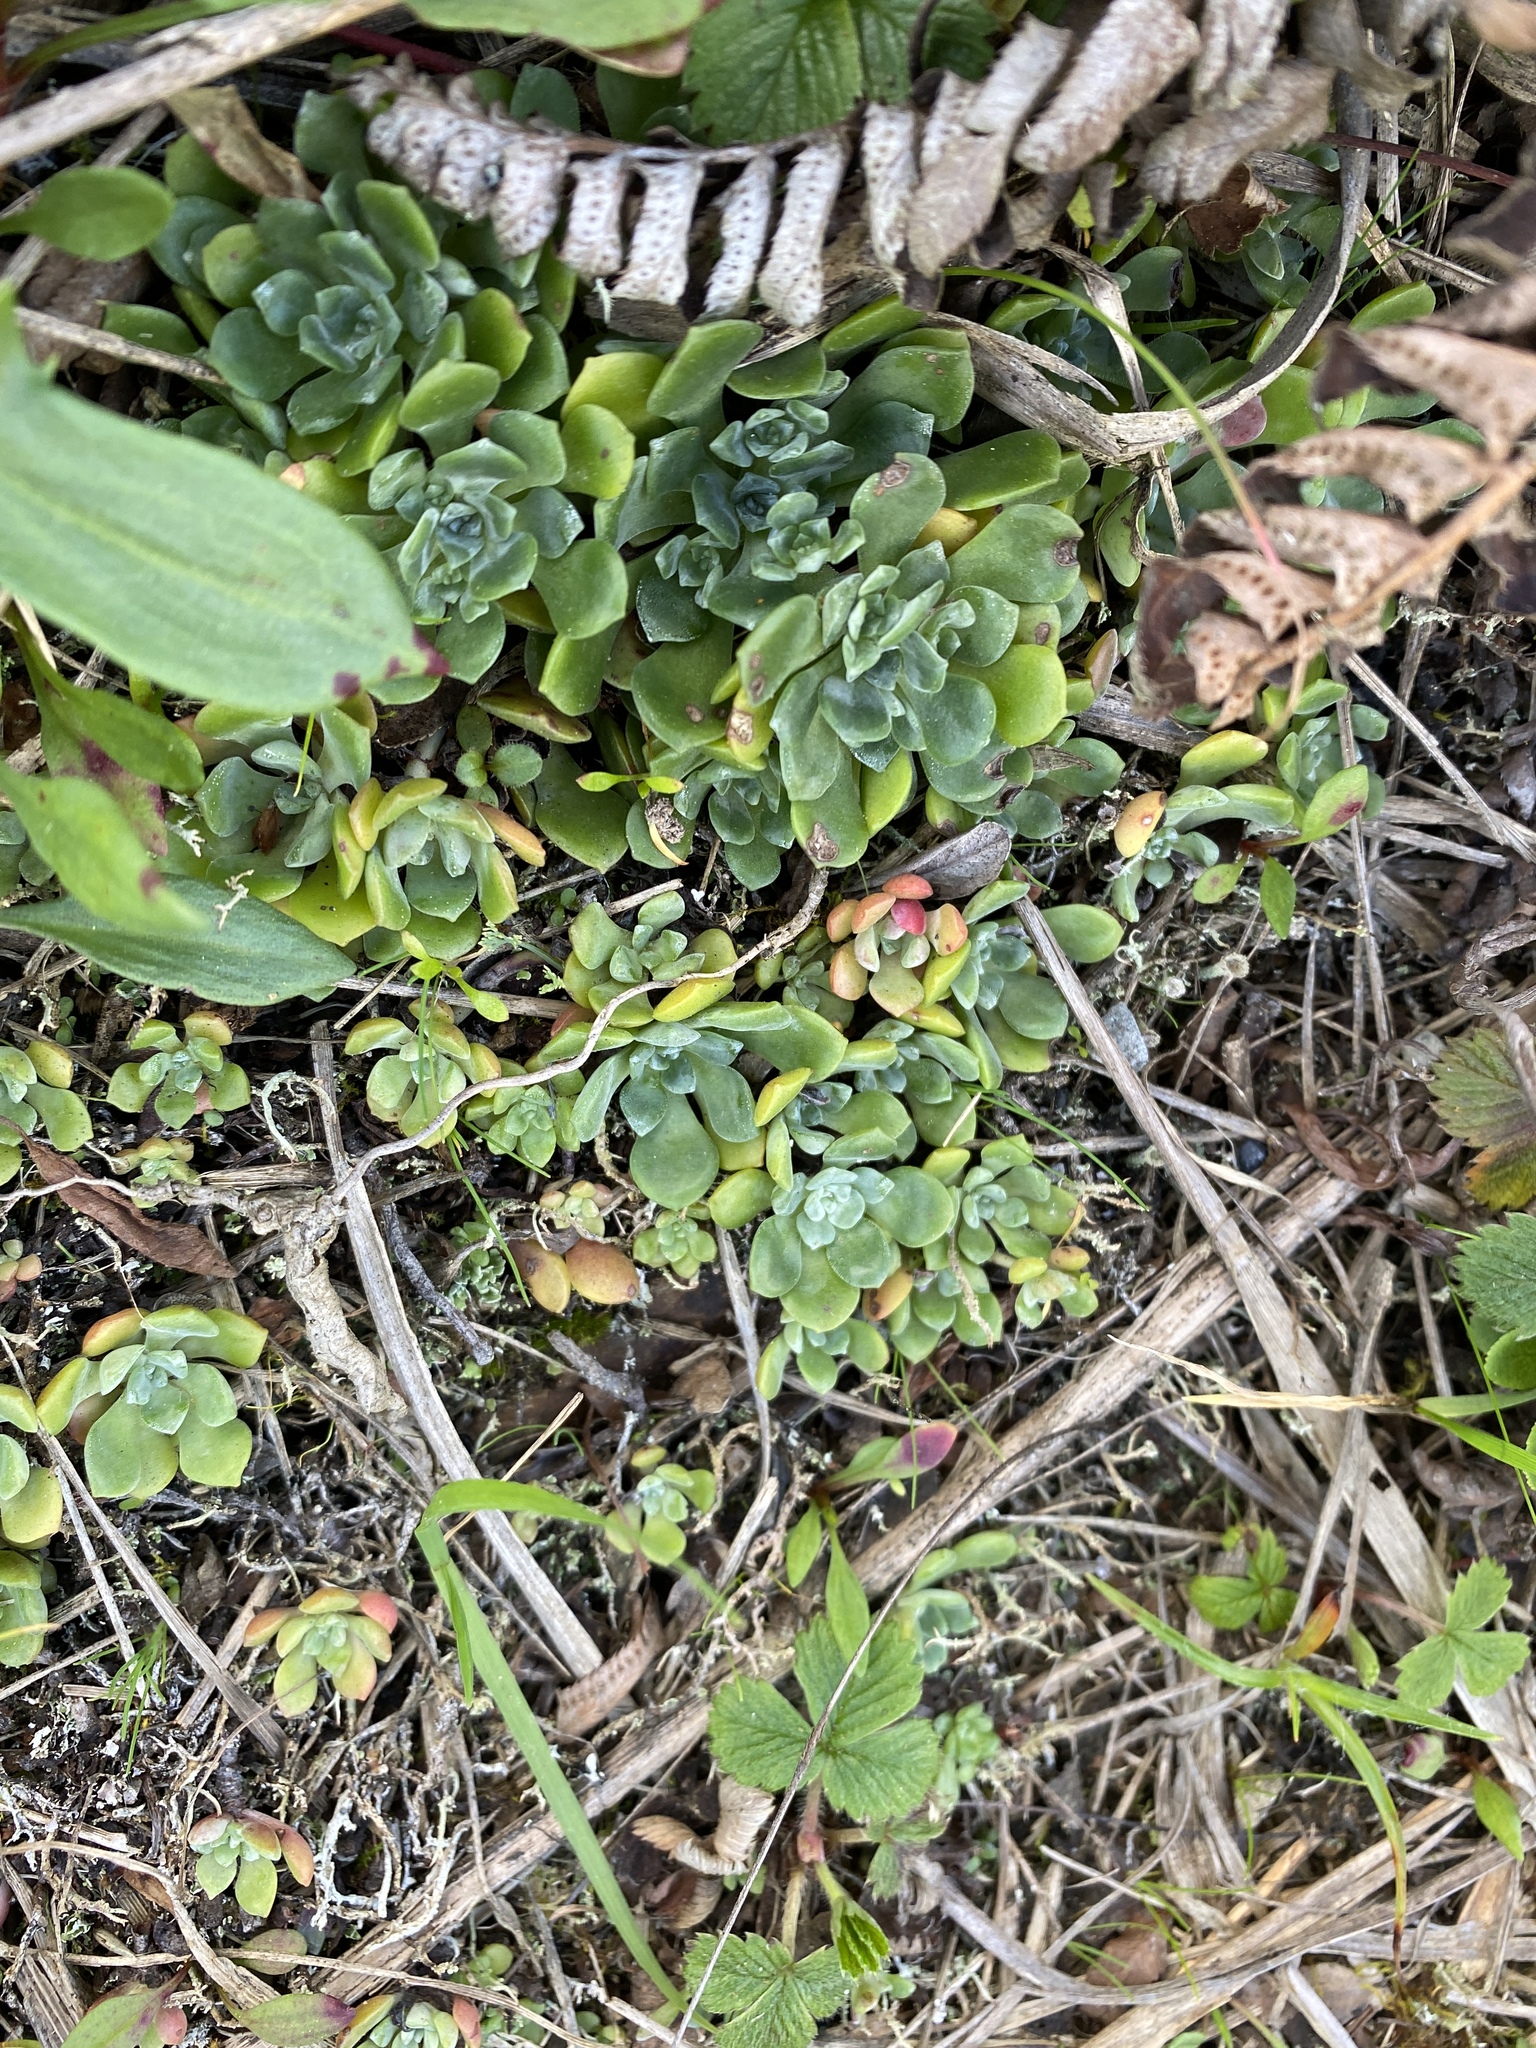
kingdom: Plantae
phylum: Tracheophyta
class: Magnoliopsida
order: Saxifragales
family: Crassulaceae
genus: Sedum
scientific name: Sedum spathulifolium
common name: Colorado stonecrop
